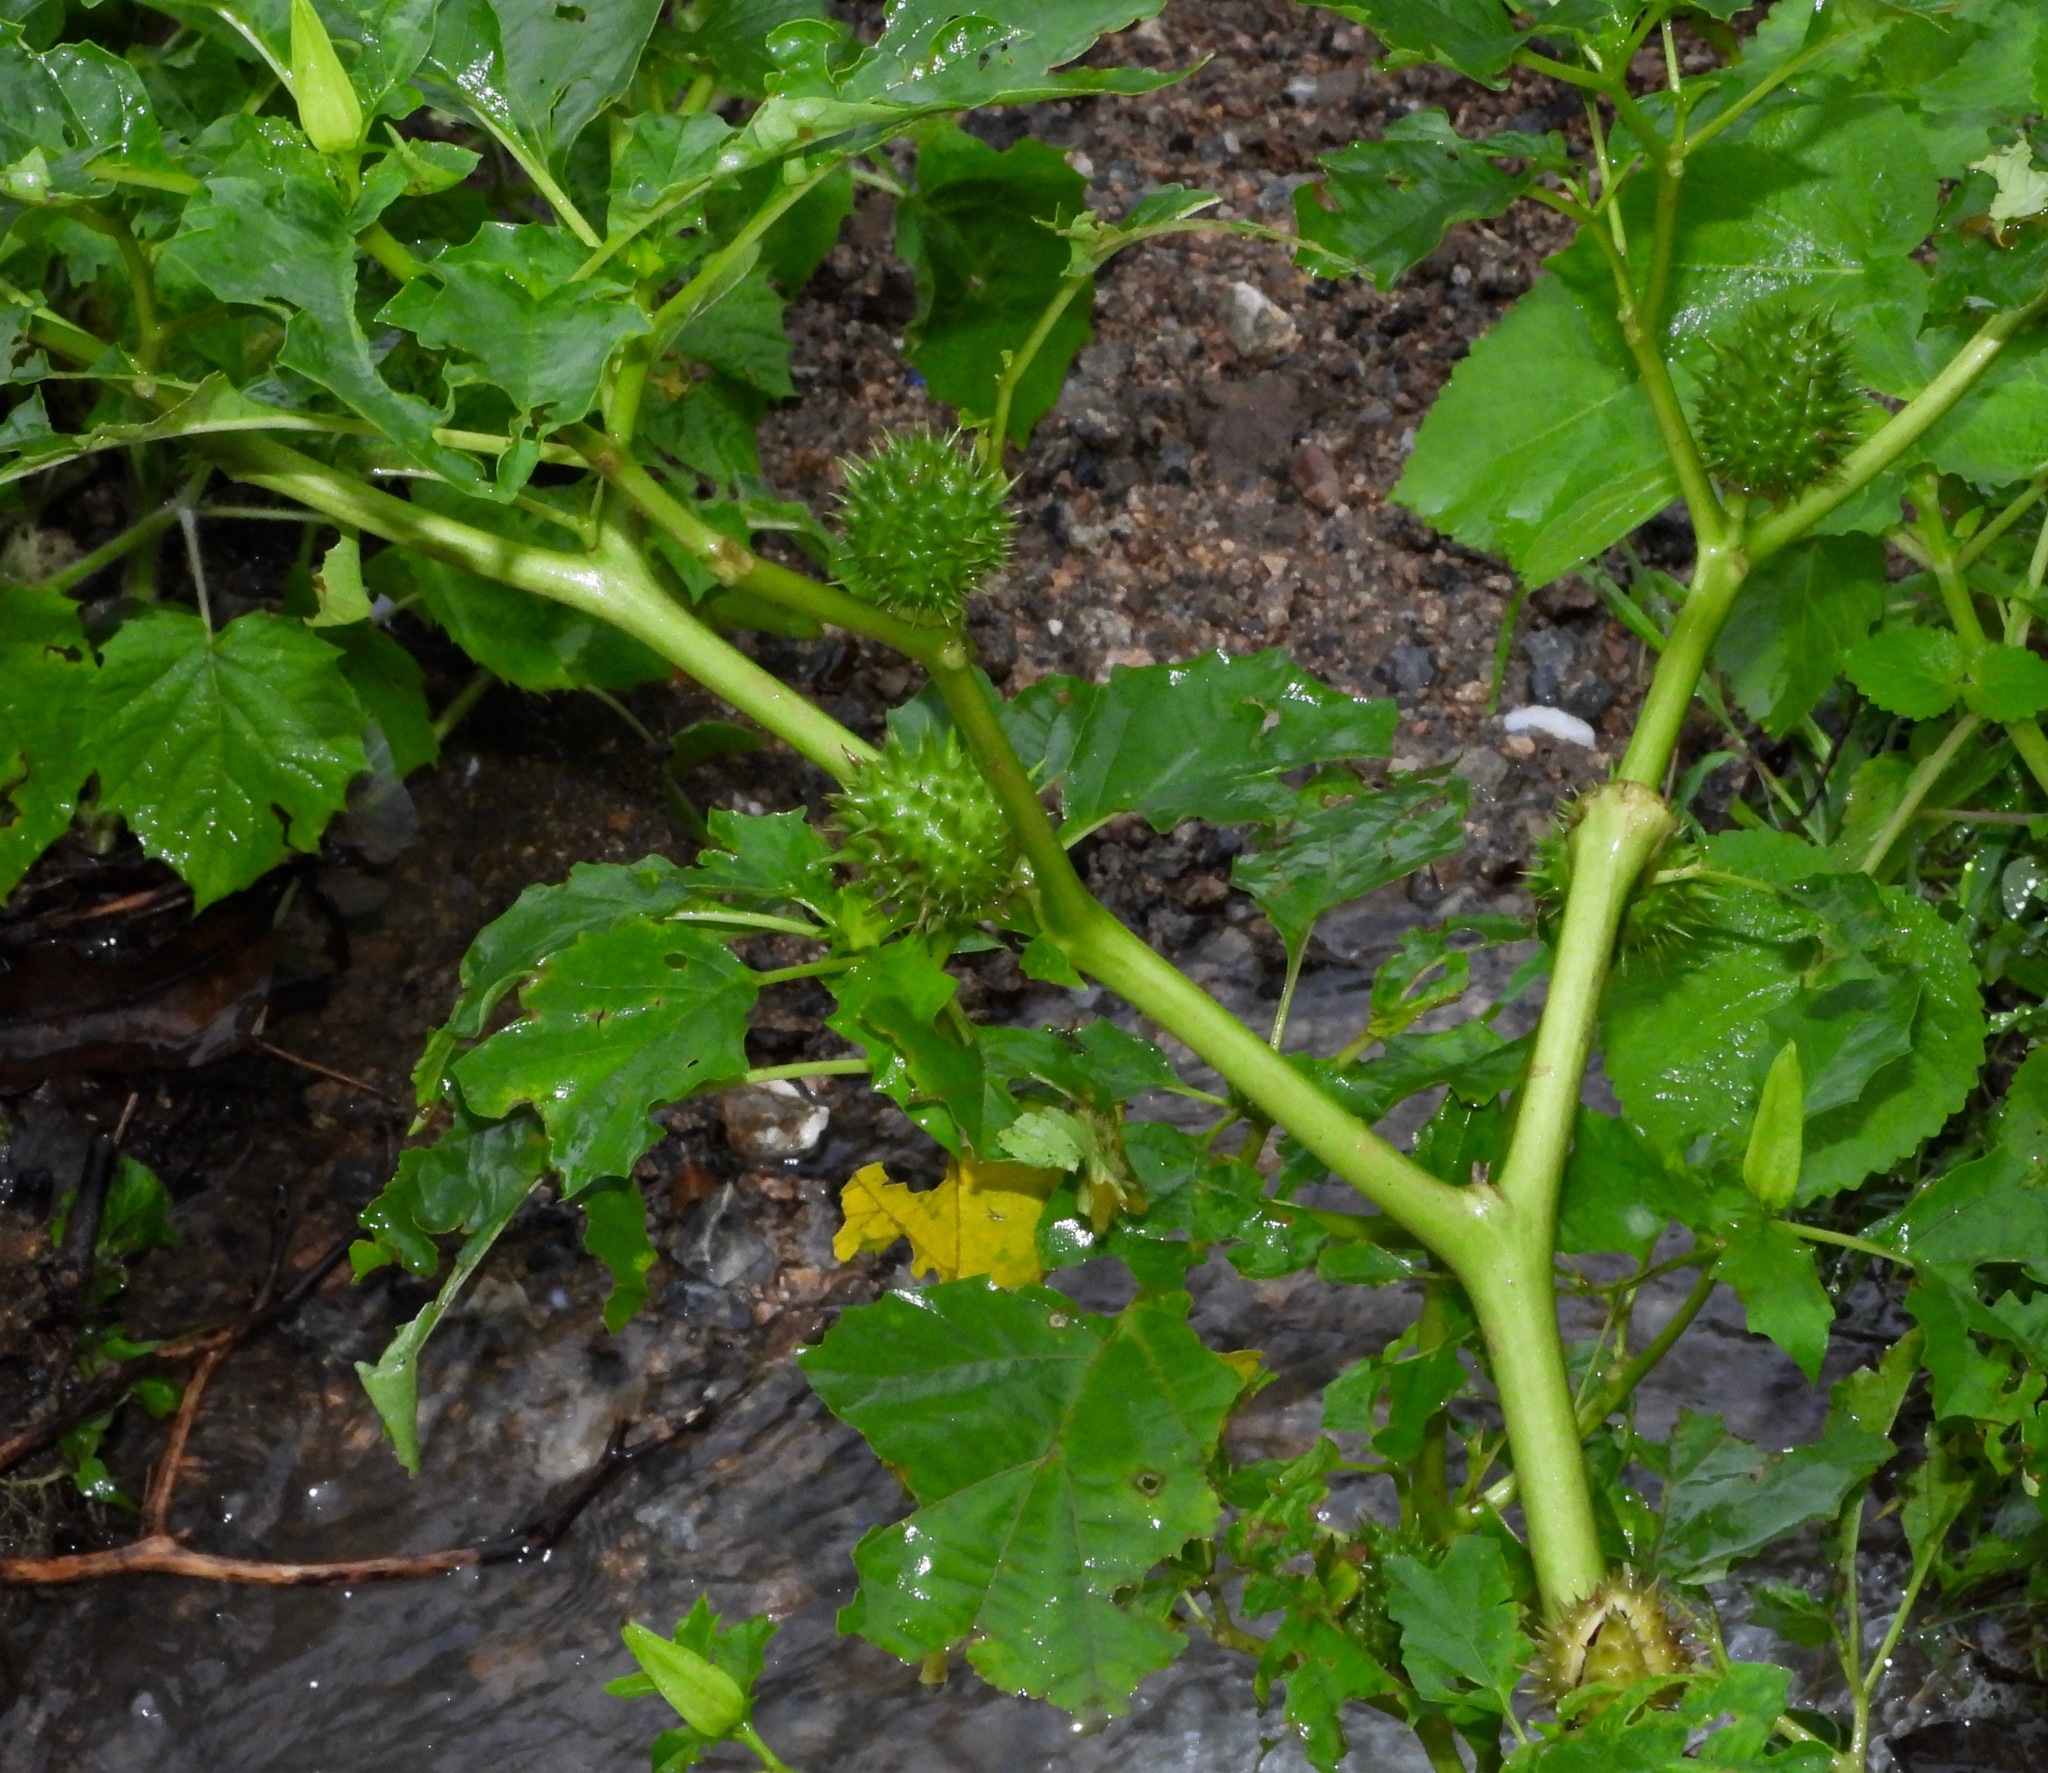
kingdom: Plantae
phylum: Tracheophyta
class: Magnoliopsida
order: Solanales
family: Solanaceae
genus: Datura
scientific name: Datura stramonium
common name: Thorn-apple
